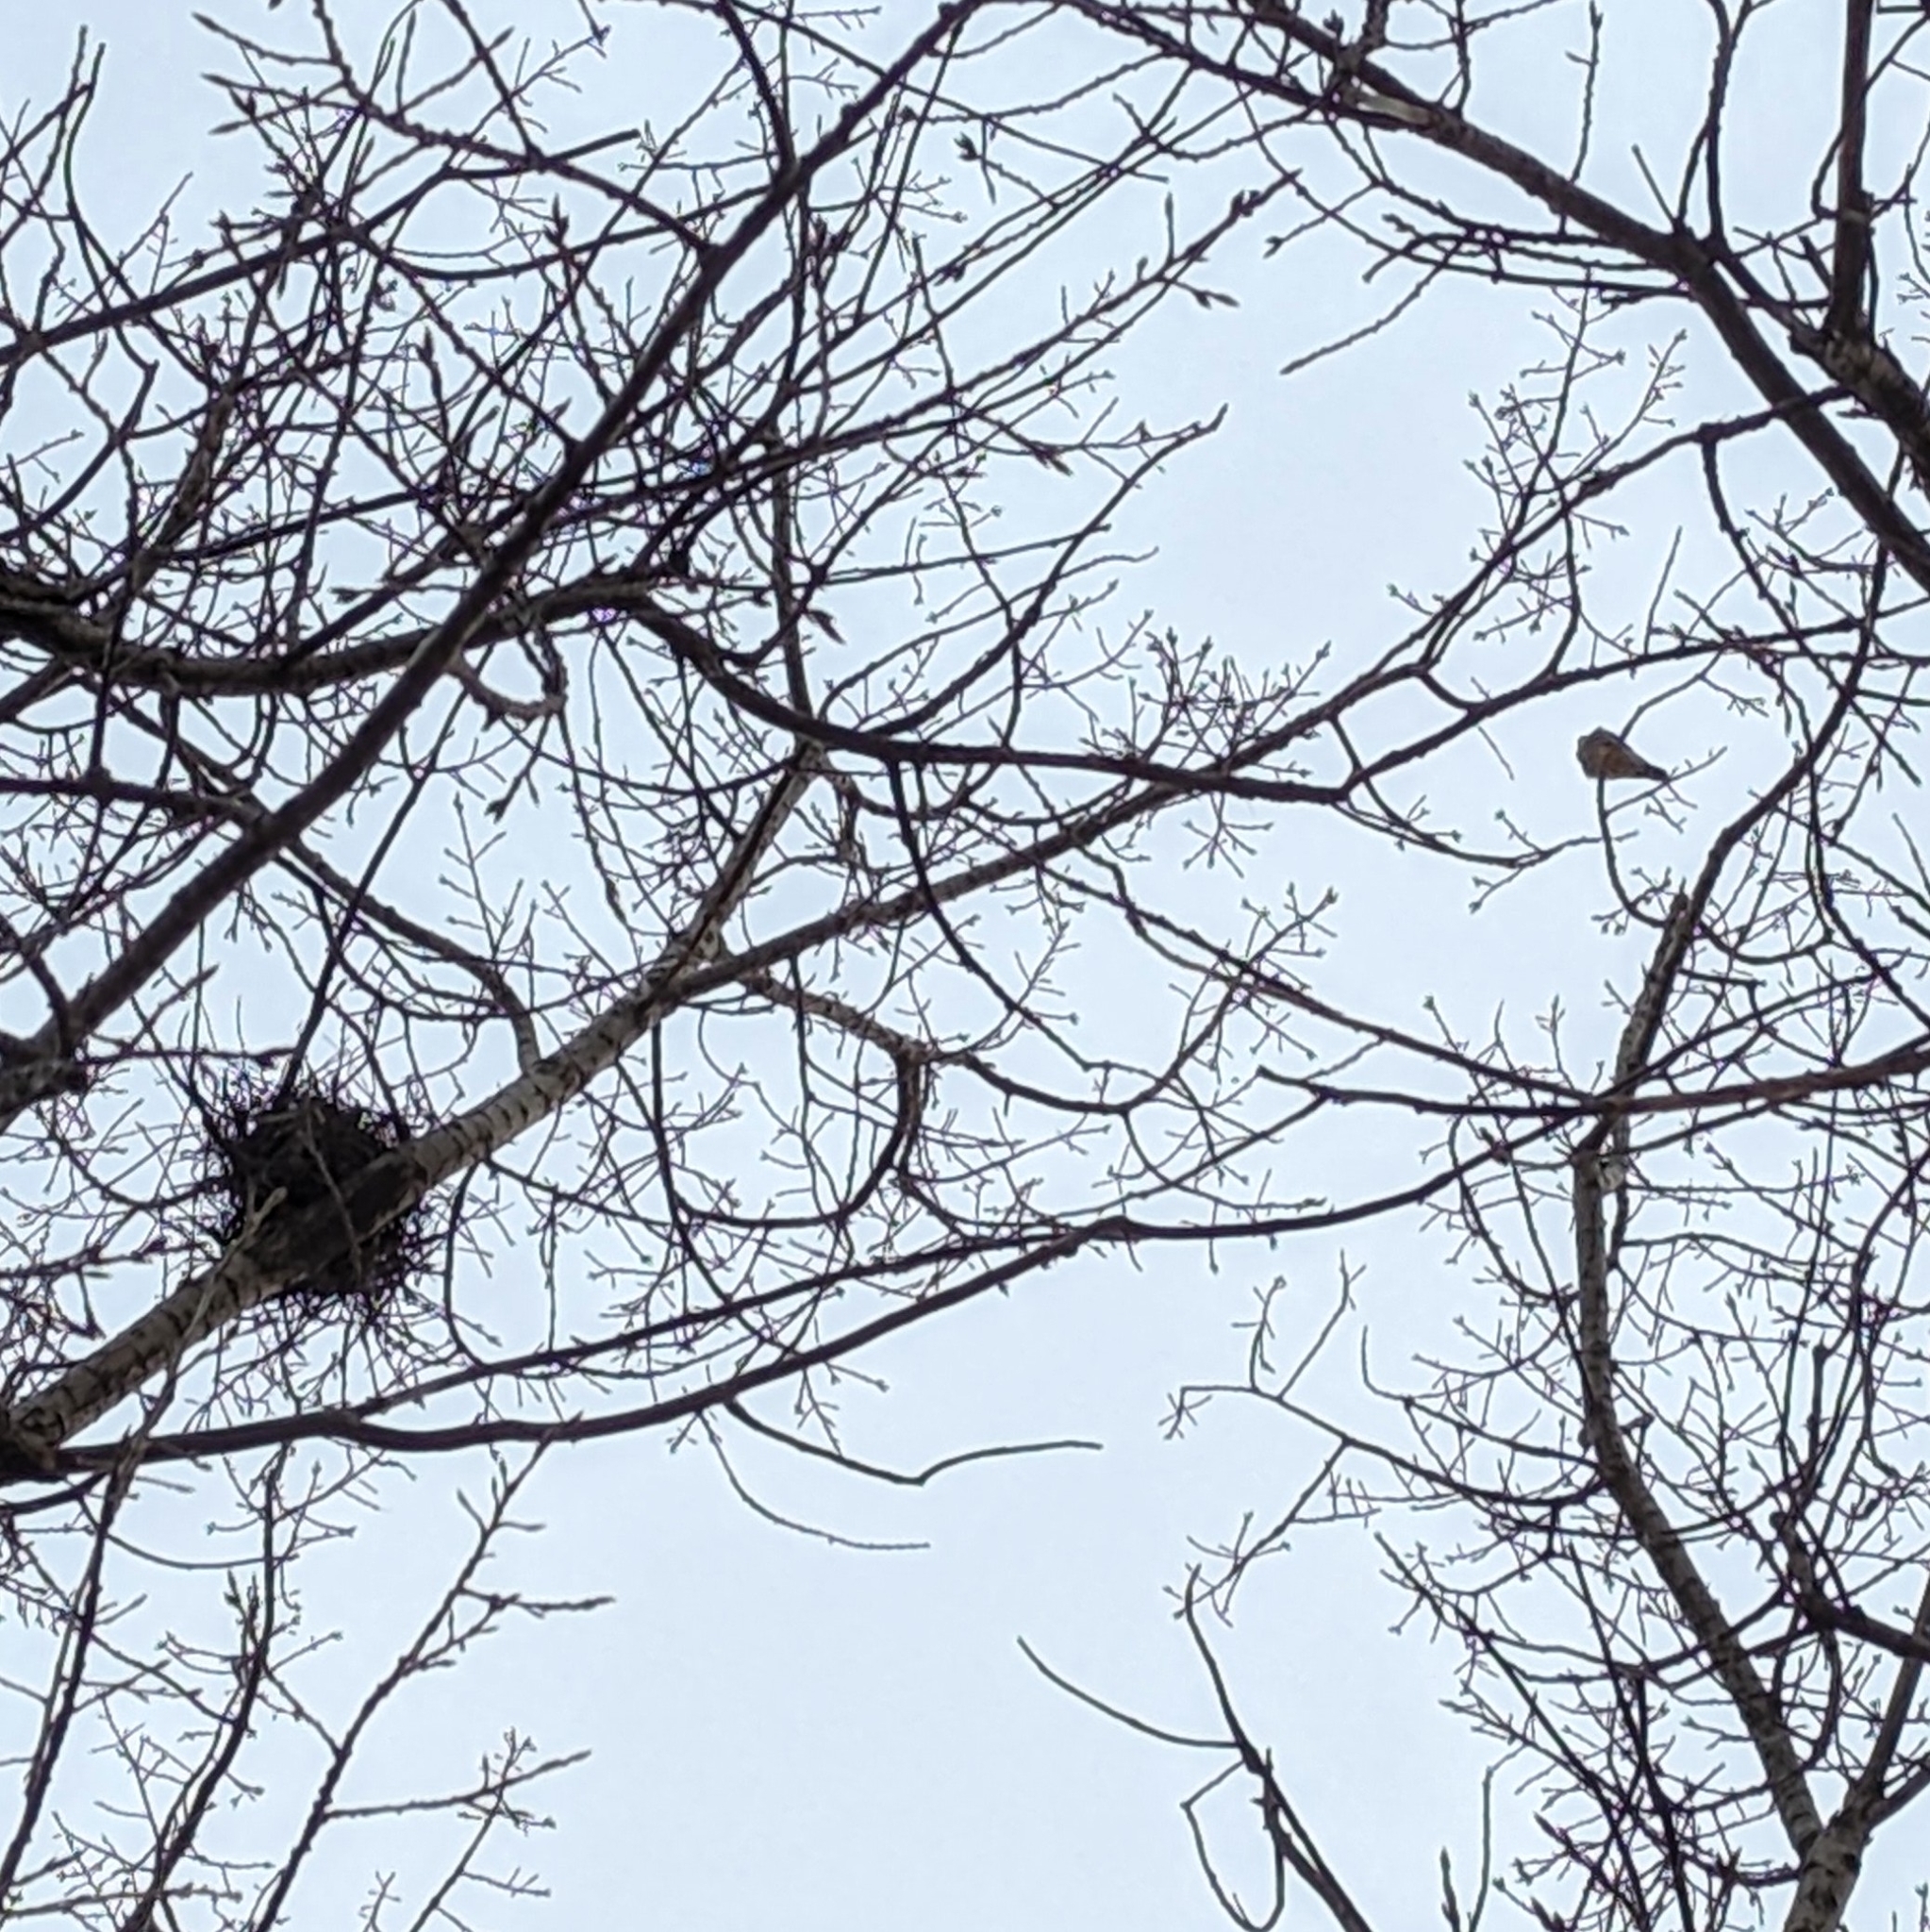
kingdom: Animalia
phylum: Chordata
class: Aves
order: Accipitriformes
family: Accipitridae
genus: Accipiter
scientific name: Accipiter striatus
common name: Sharp-shinned hawk
